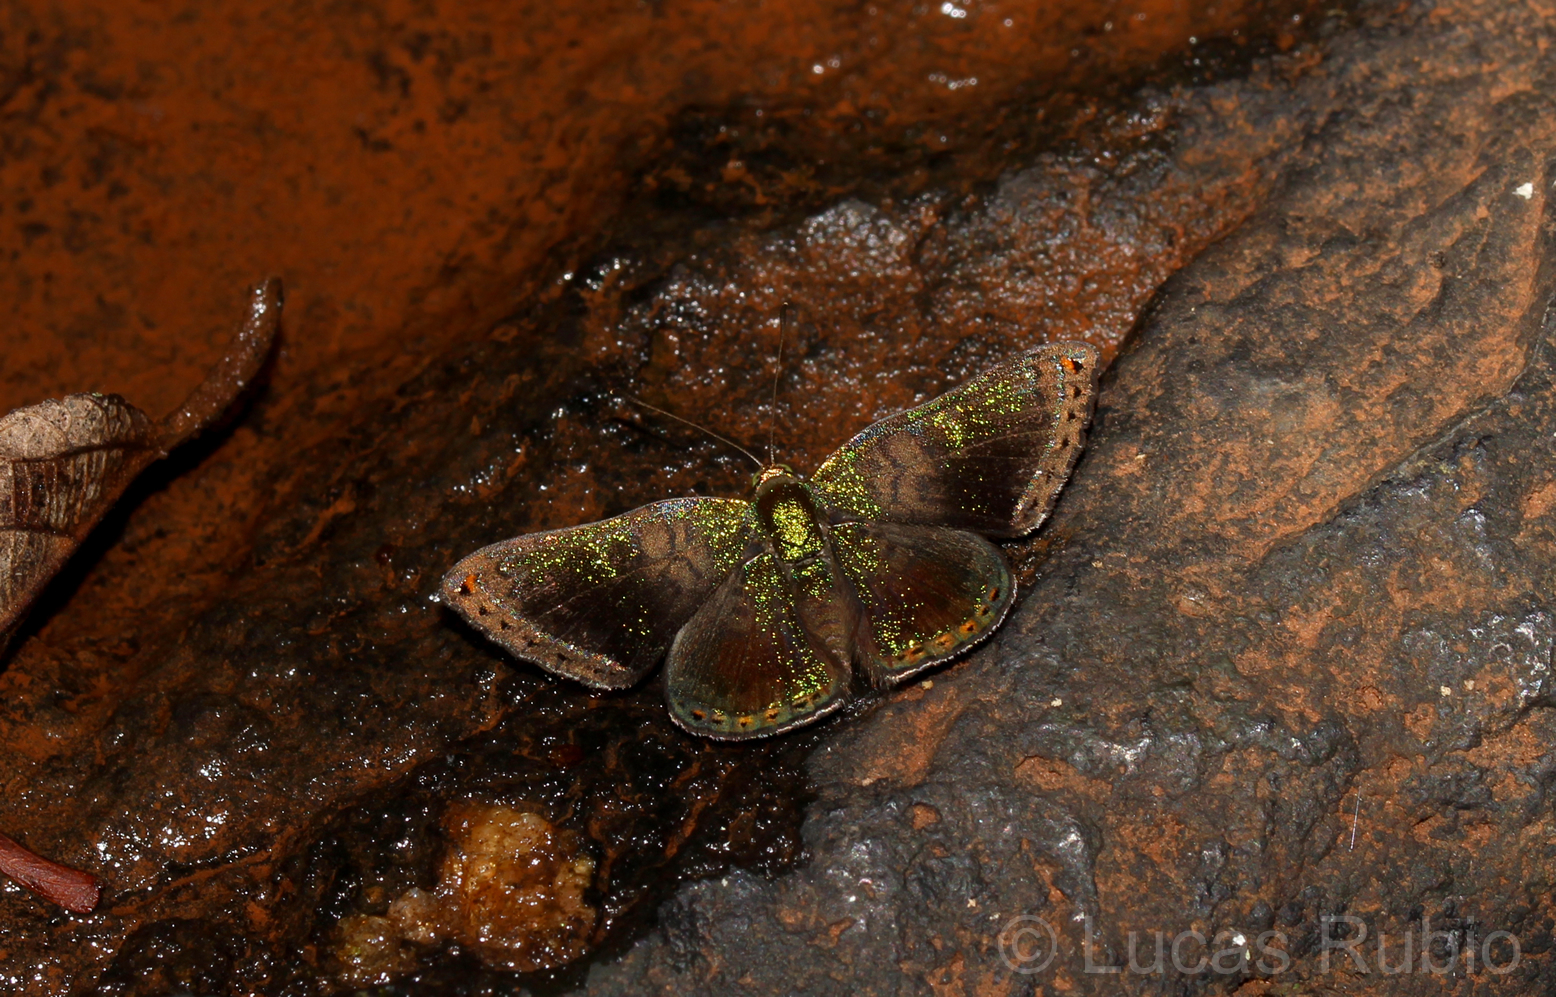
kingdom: Animalia
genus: Caria
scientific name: Caria castalia
